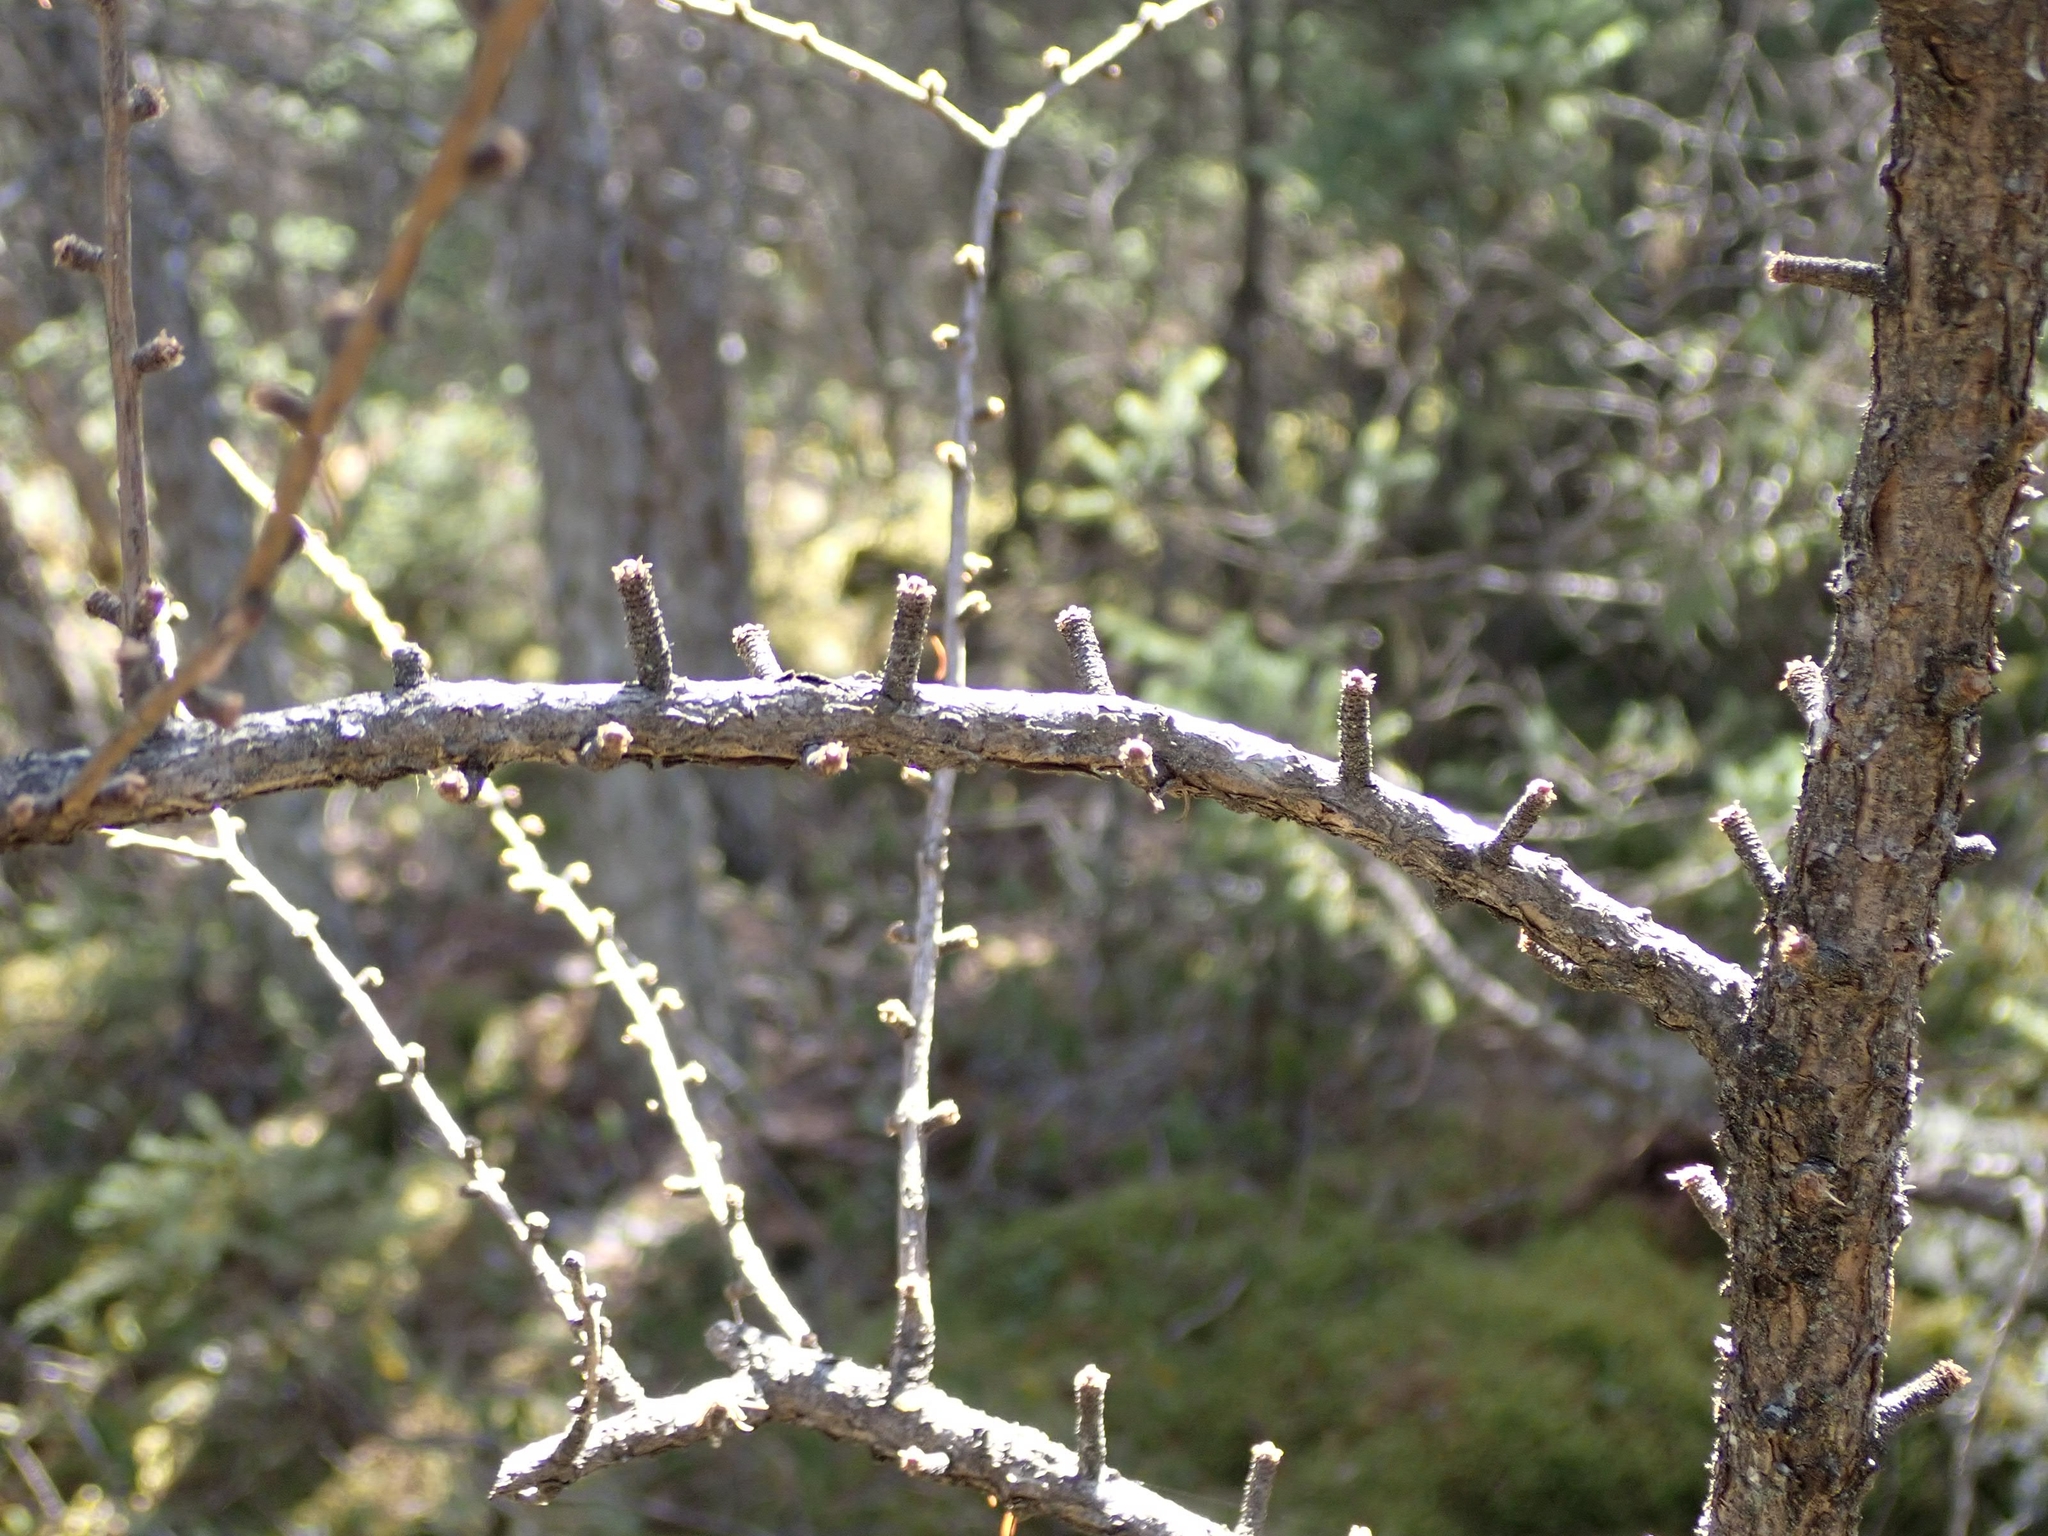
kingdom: Plantae
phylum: Tracheophyta
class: Pinopsida
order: Pinales
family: Pinaceae
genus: Larix
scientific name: Larix laricina
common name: American larch
